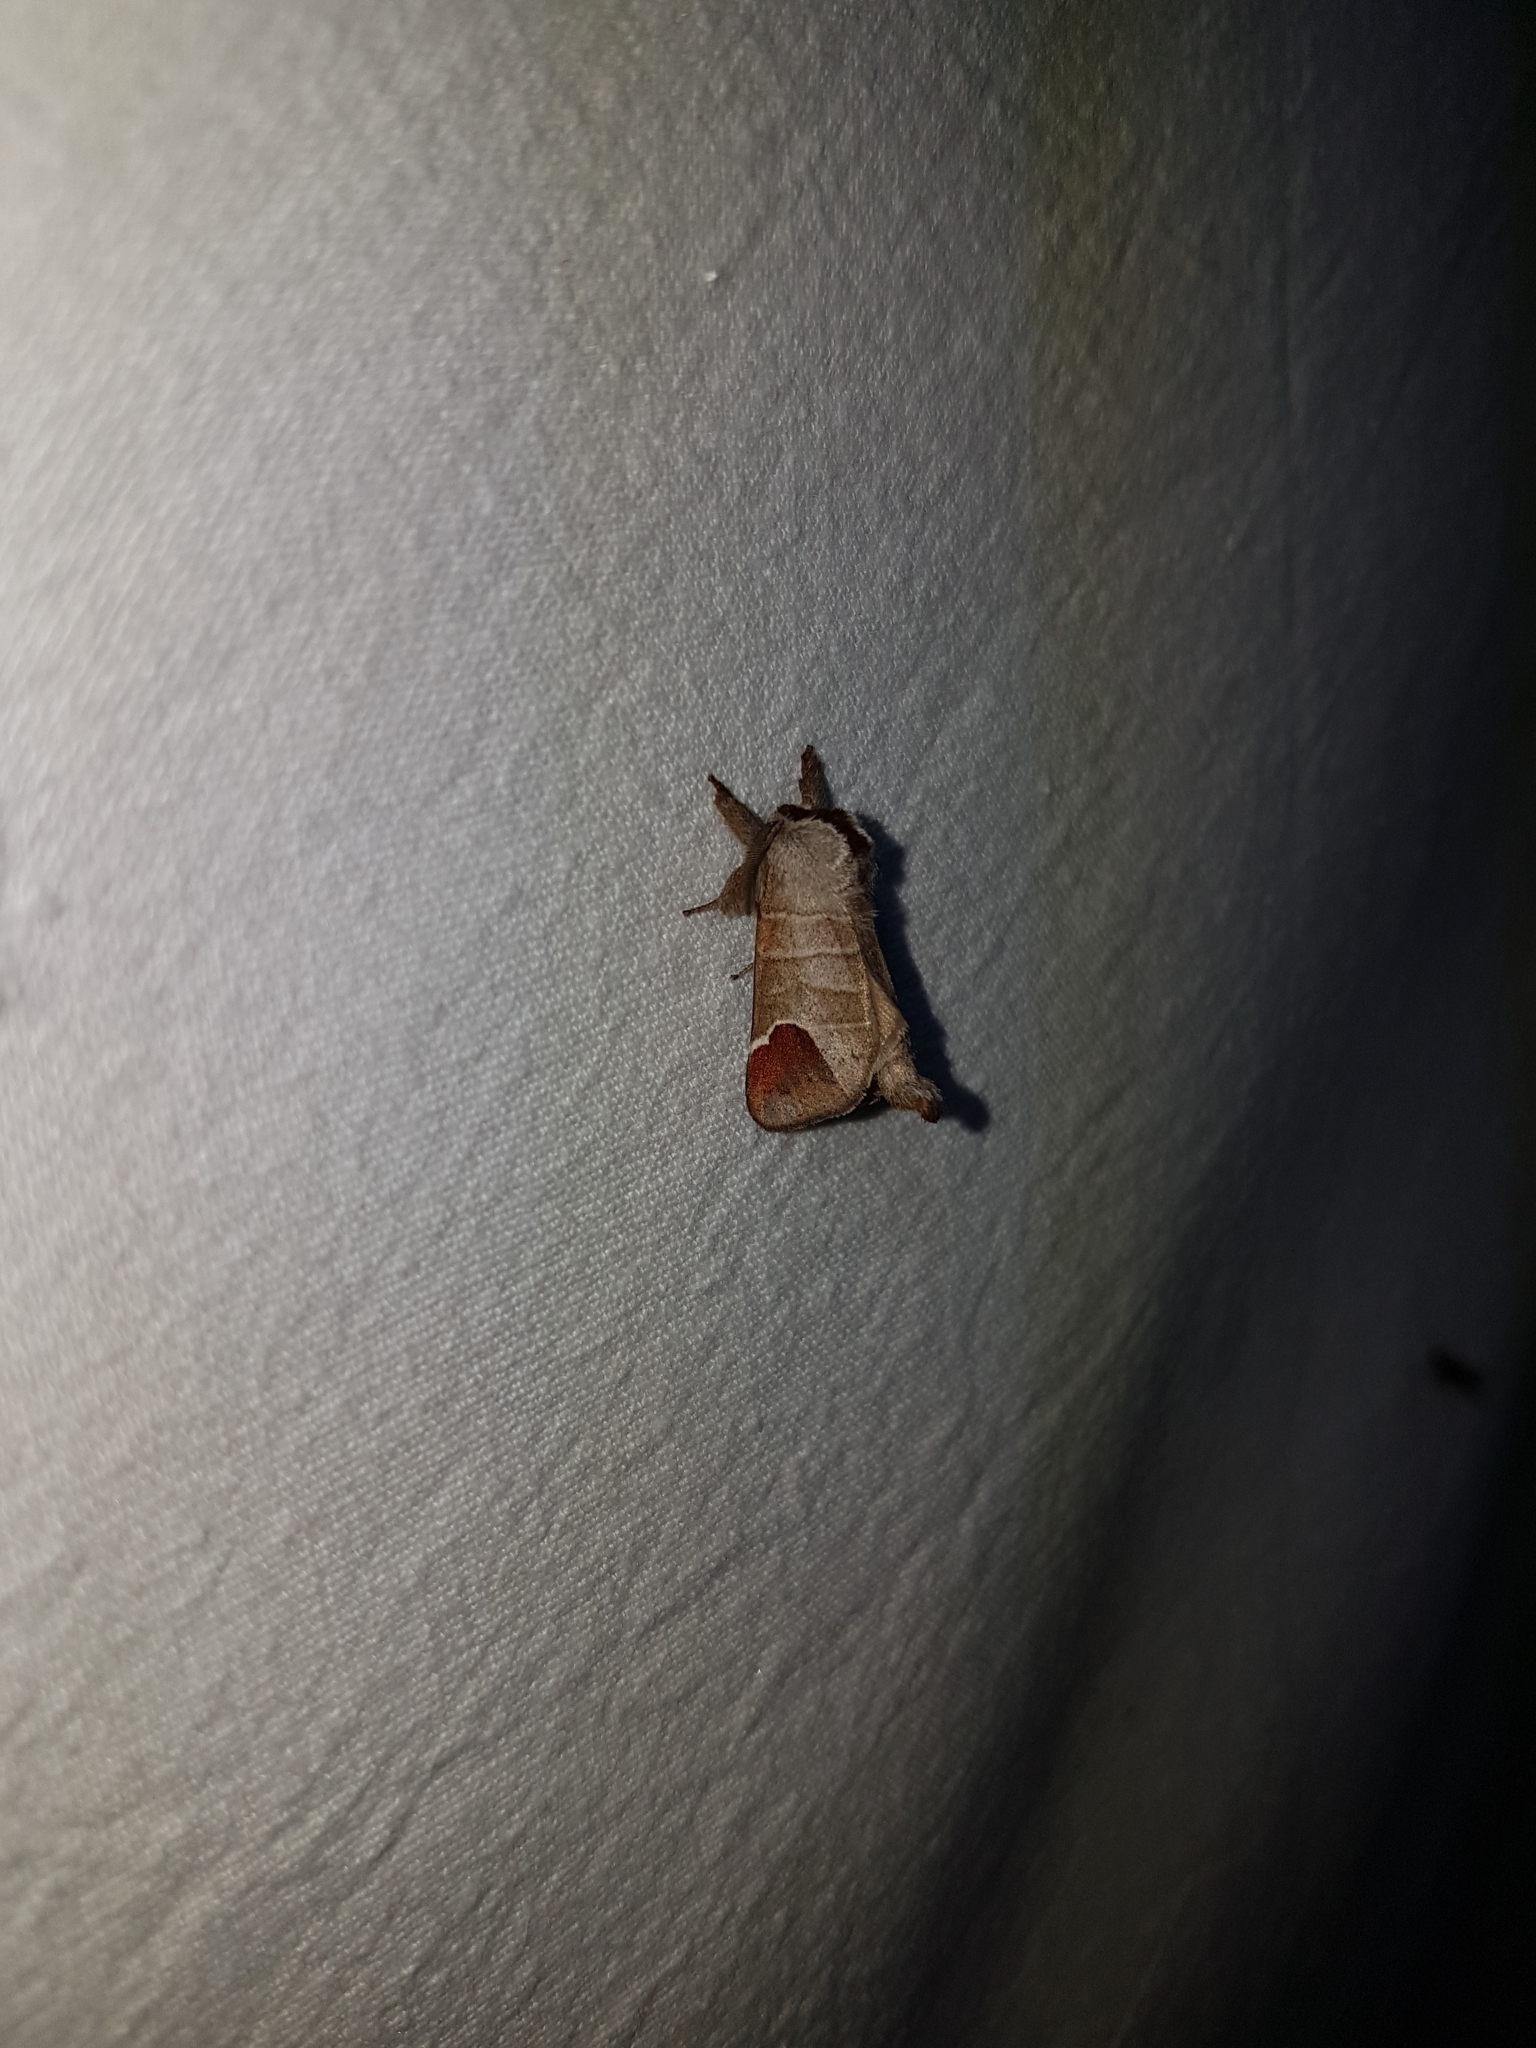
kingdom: Animalia
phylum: Arthropoda
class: Insecta
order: Lepidoptera
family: Notodontidae
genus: Clostera
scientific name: Clostera curtula
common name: Chocolate-tip
